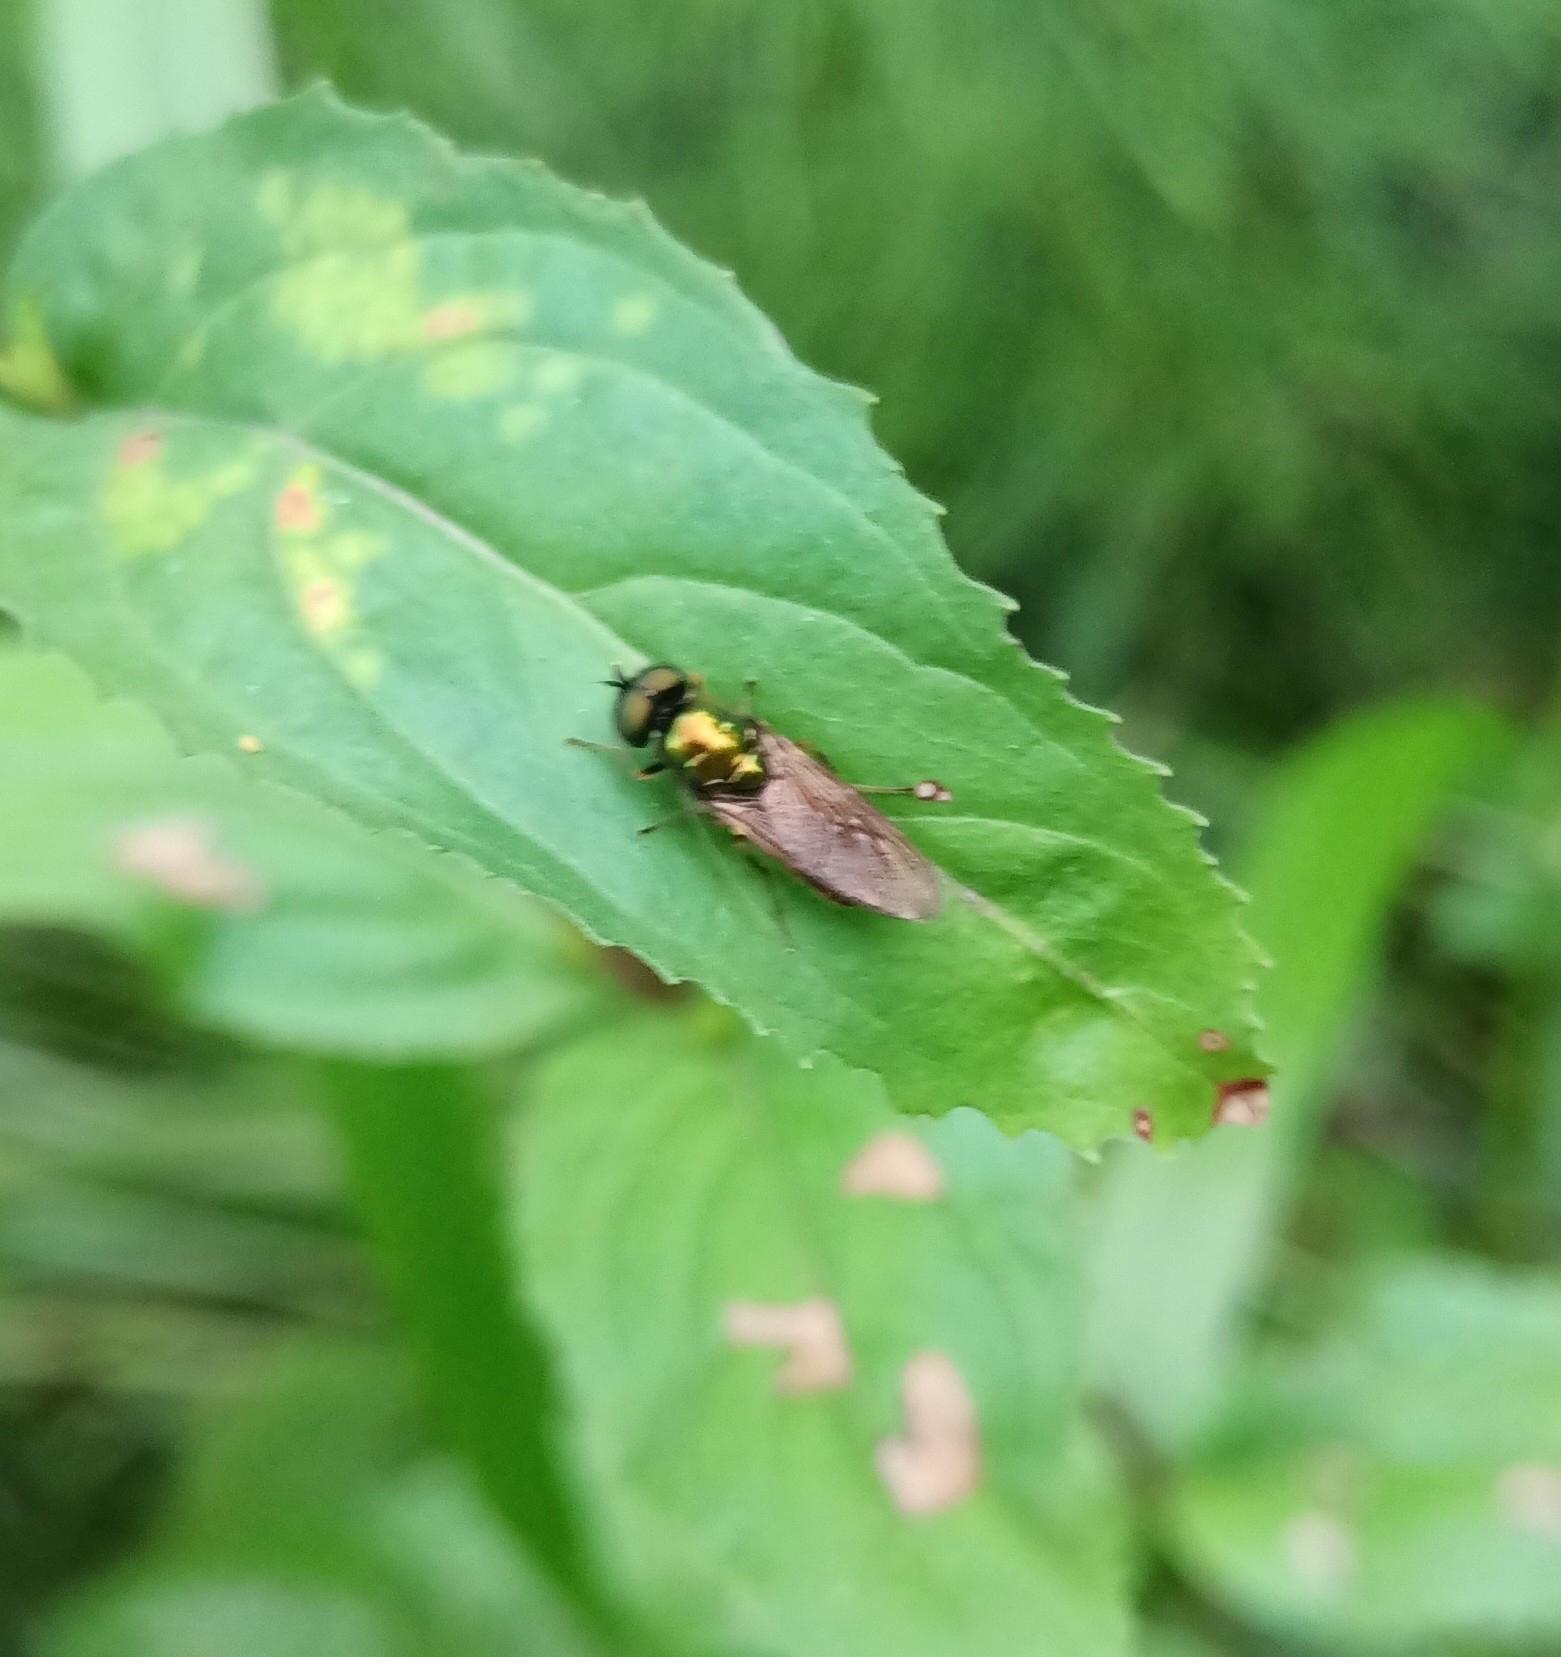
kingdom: Animalia
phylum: Arthropoda
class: Insecta
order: Diptera
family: Stratiomyidae
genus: Chloromyia
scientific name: Chloromyia formosa
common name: Soldier fly
